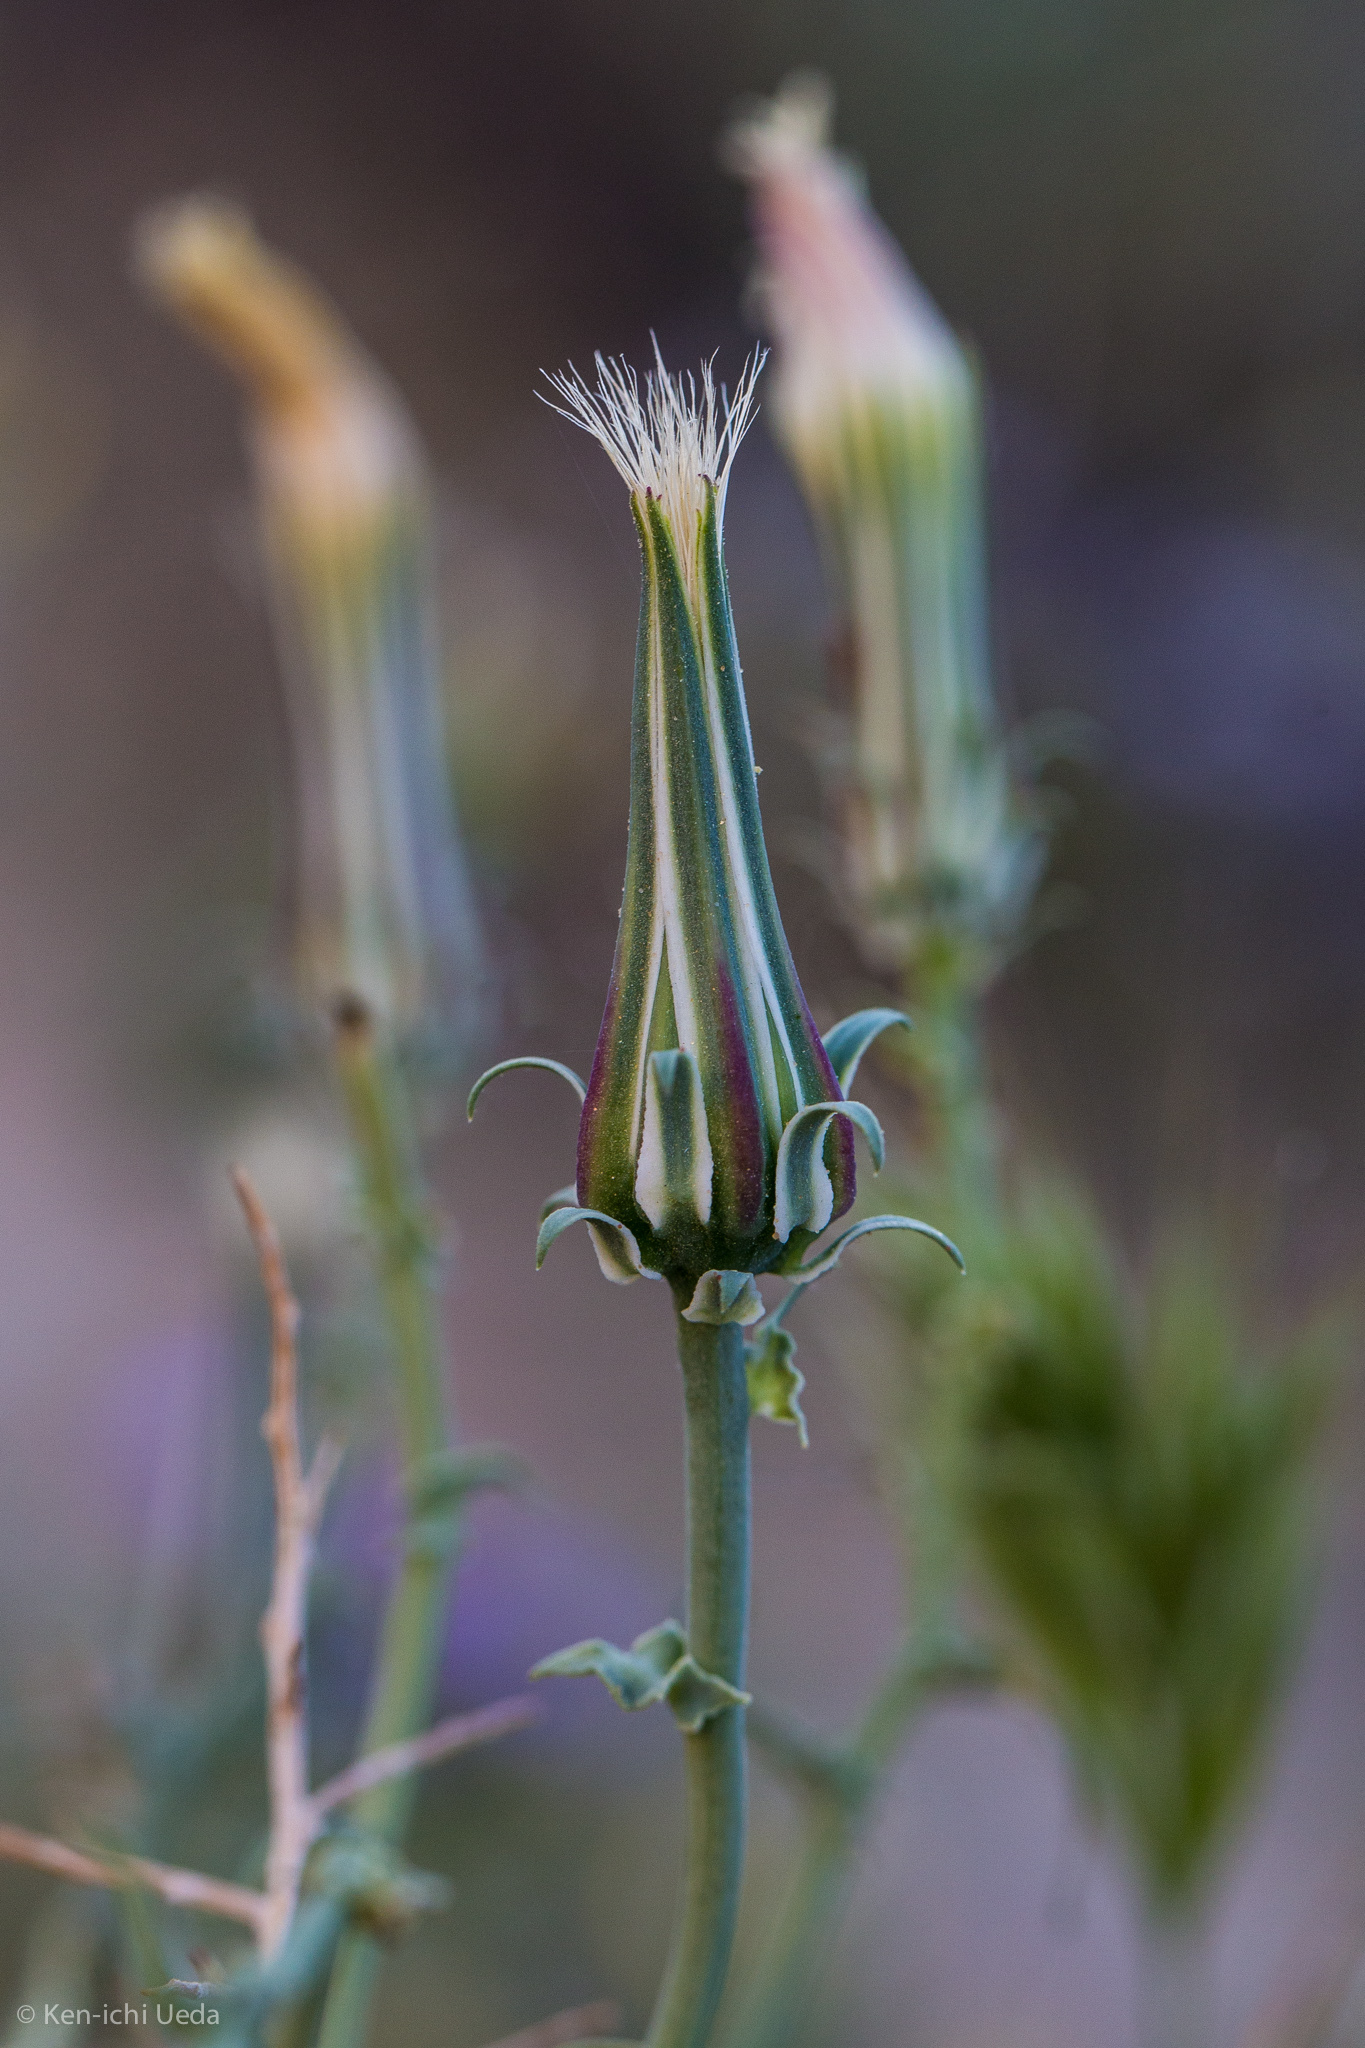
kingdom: Plantae
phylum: Tracheophyta
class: Magnoliopsida
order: Asterales
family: Asteraceae
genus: Rafinesquia
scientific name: Rafinesquia neomexicana
